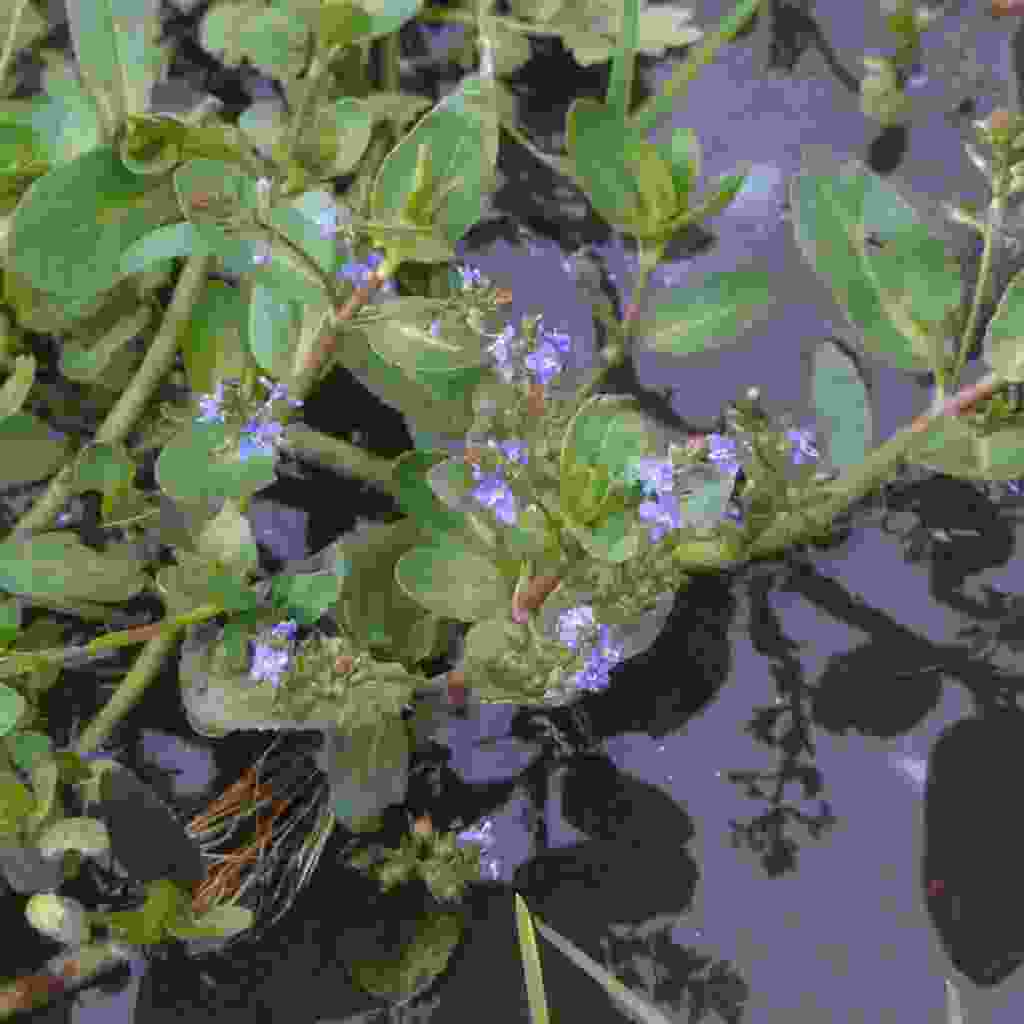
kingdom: Plantae
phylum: Tracheophyta
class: Magnoliopsida
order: Lamiales
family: Plantaginaceae
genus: Veronica
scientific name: Veronica beccabunga
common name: Brooklime
